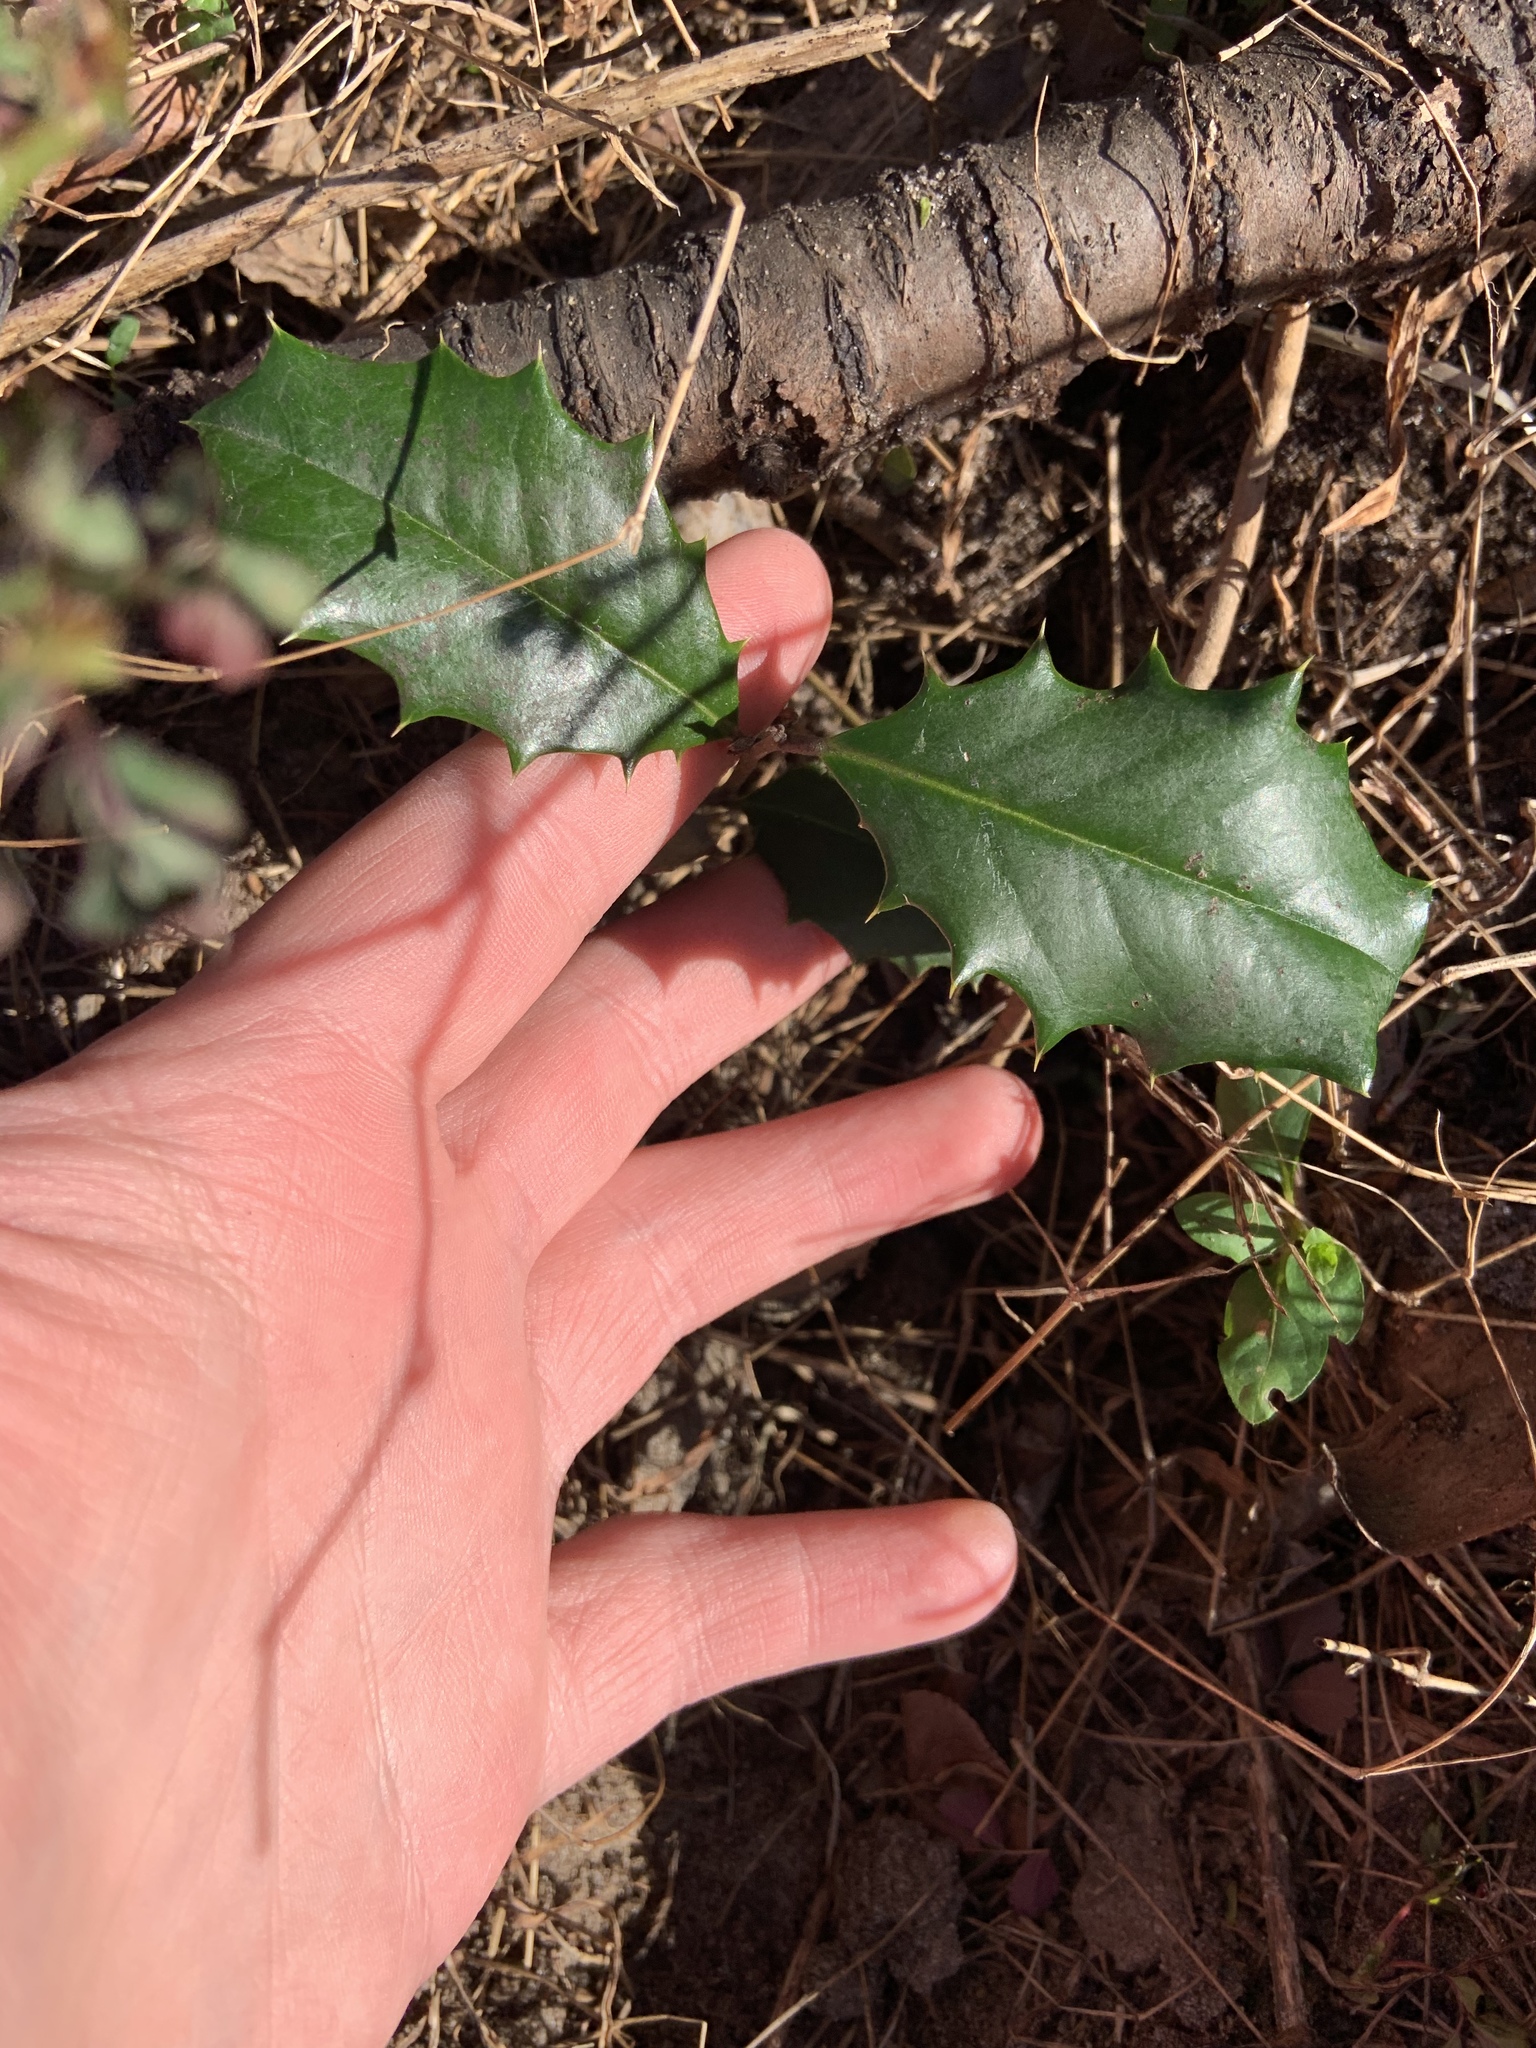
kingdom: Plantae
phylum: Tracheophyta
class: Magnoliopsida
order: Aquifoliales
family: Aquifoliaceae
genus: Ilex
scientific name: Ilex opaca
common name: American holly
